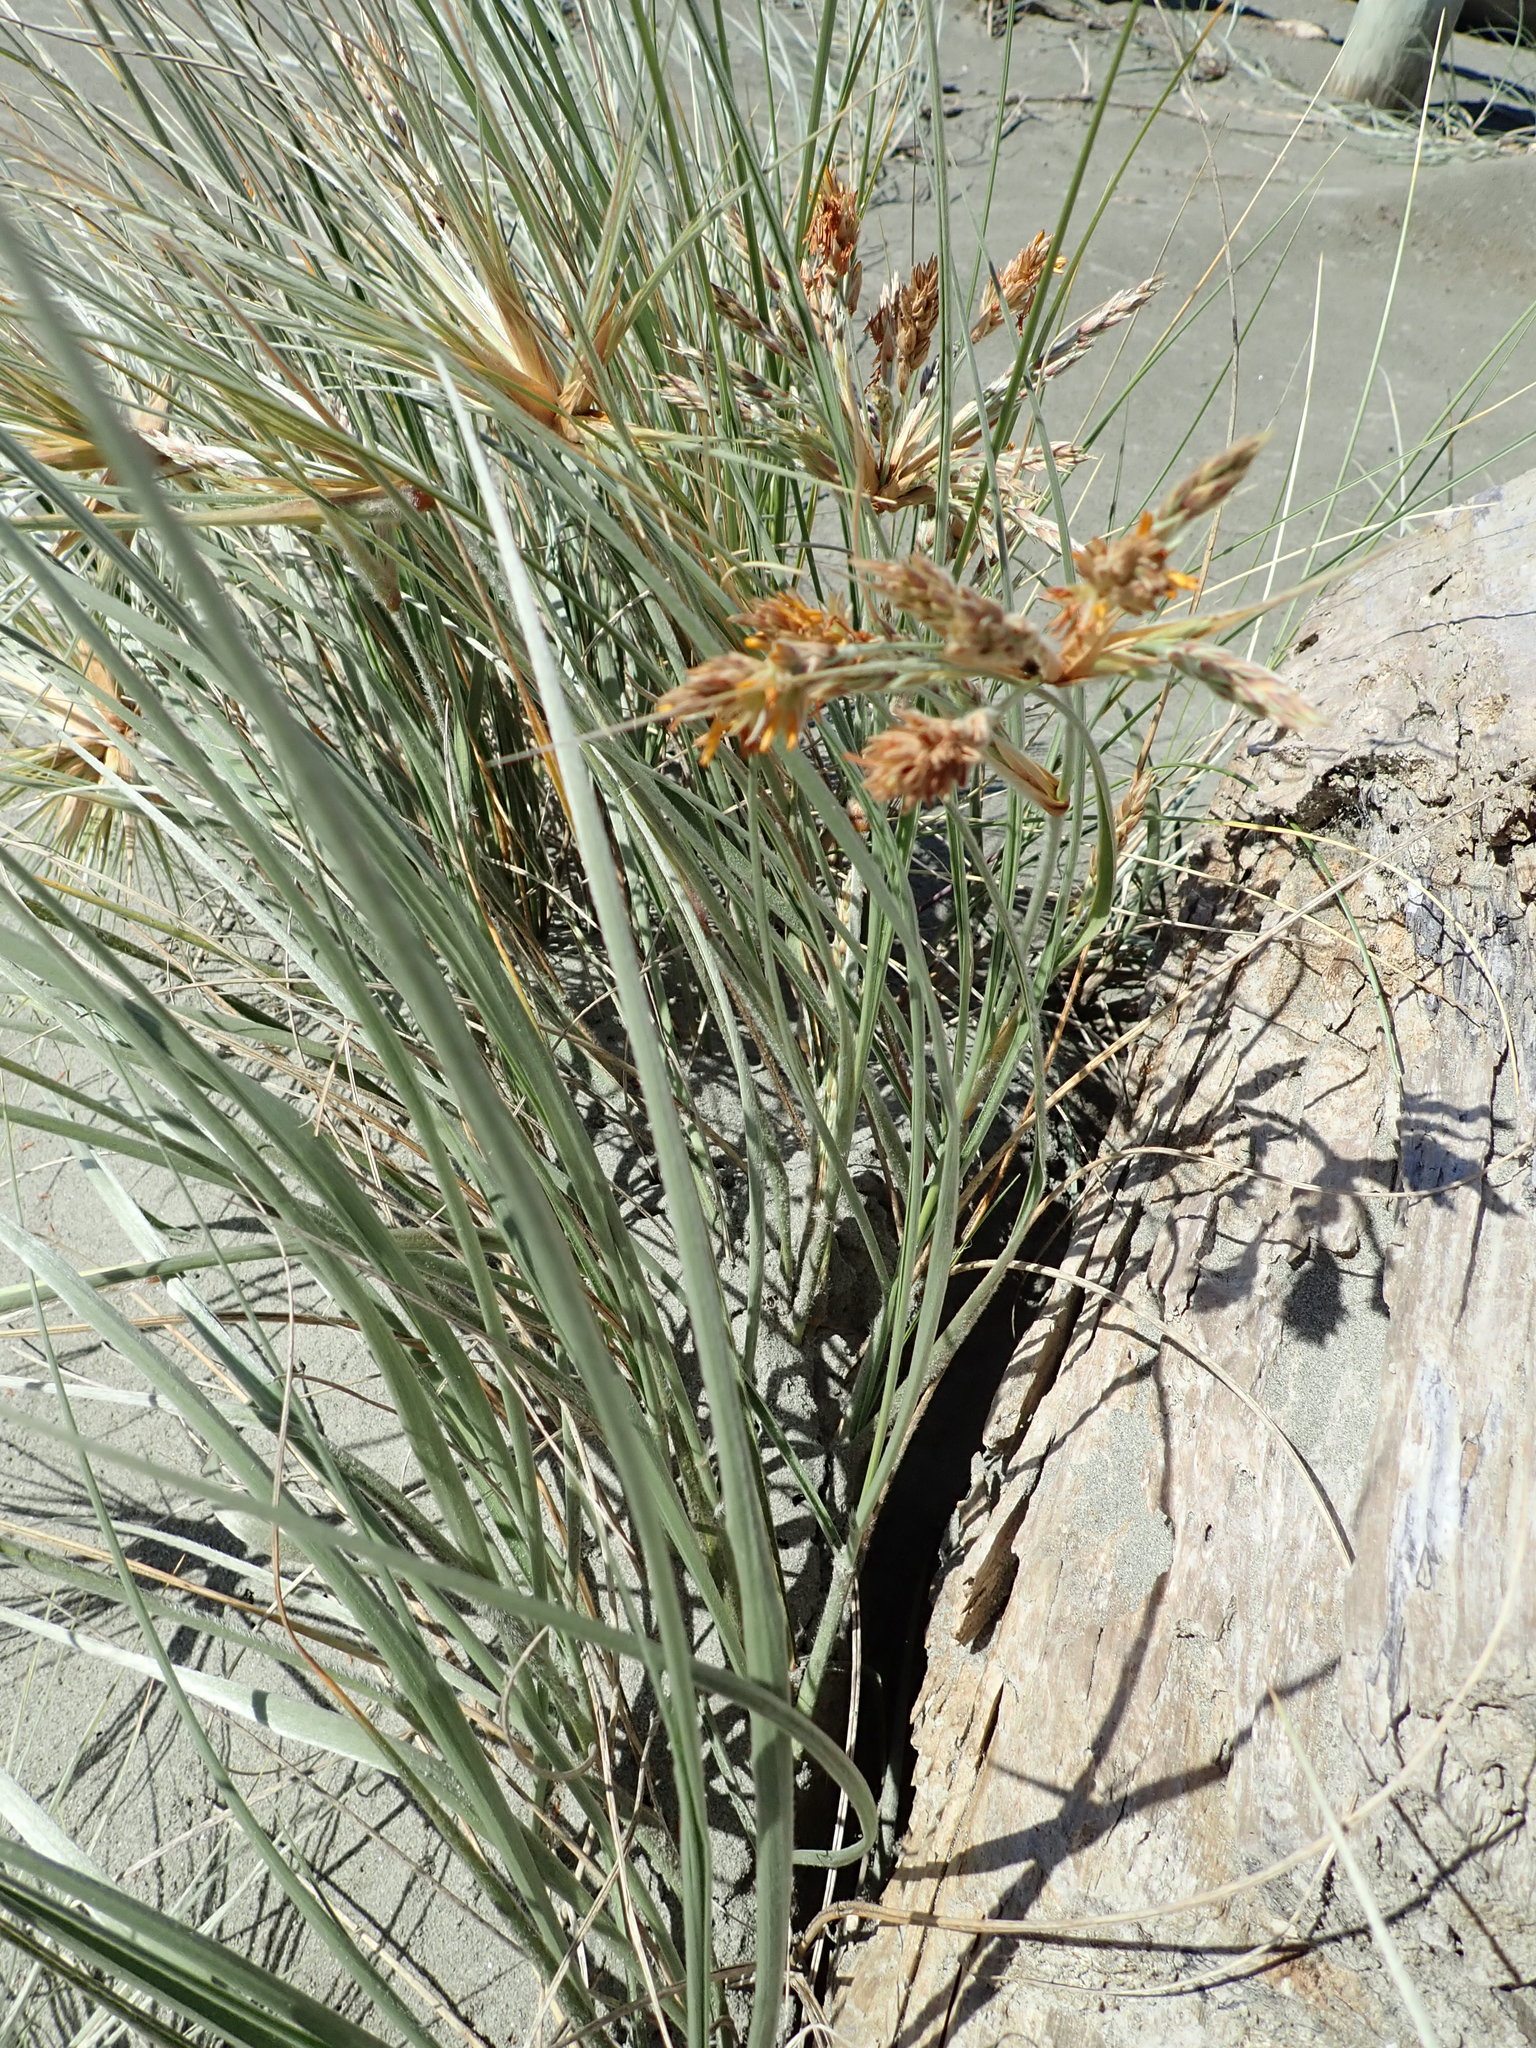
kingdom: Plantae
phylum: Tracheophyta
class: Liliopsida
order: Poales
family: Poaceae
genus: Spinifex
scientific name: Spinifex sericeus
